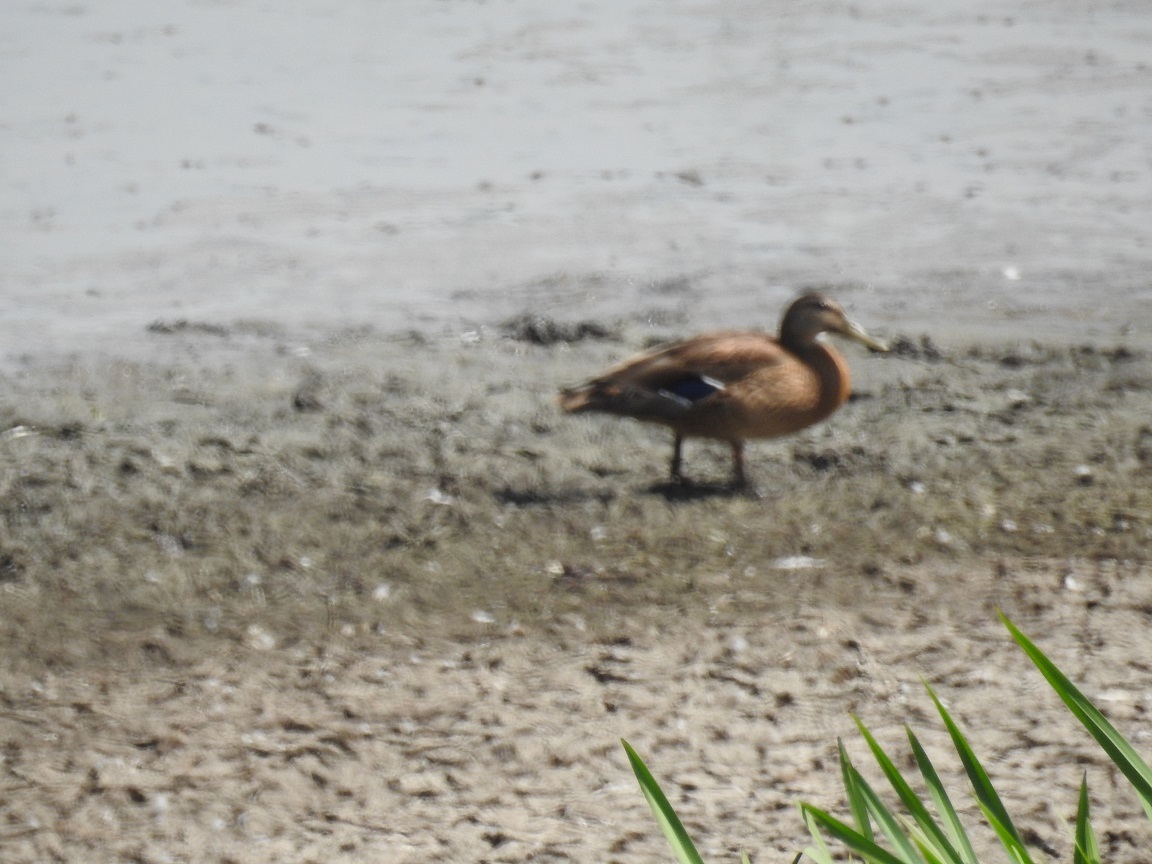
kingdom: Animalia
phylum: Chordata
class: Aves
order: Anseriformes
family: Anatidae
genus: Anas
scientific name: Anas platyrhynchos
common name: Mallard
